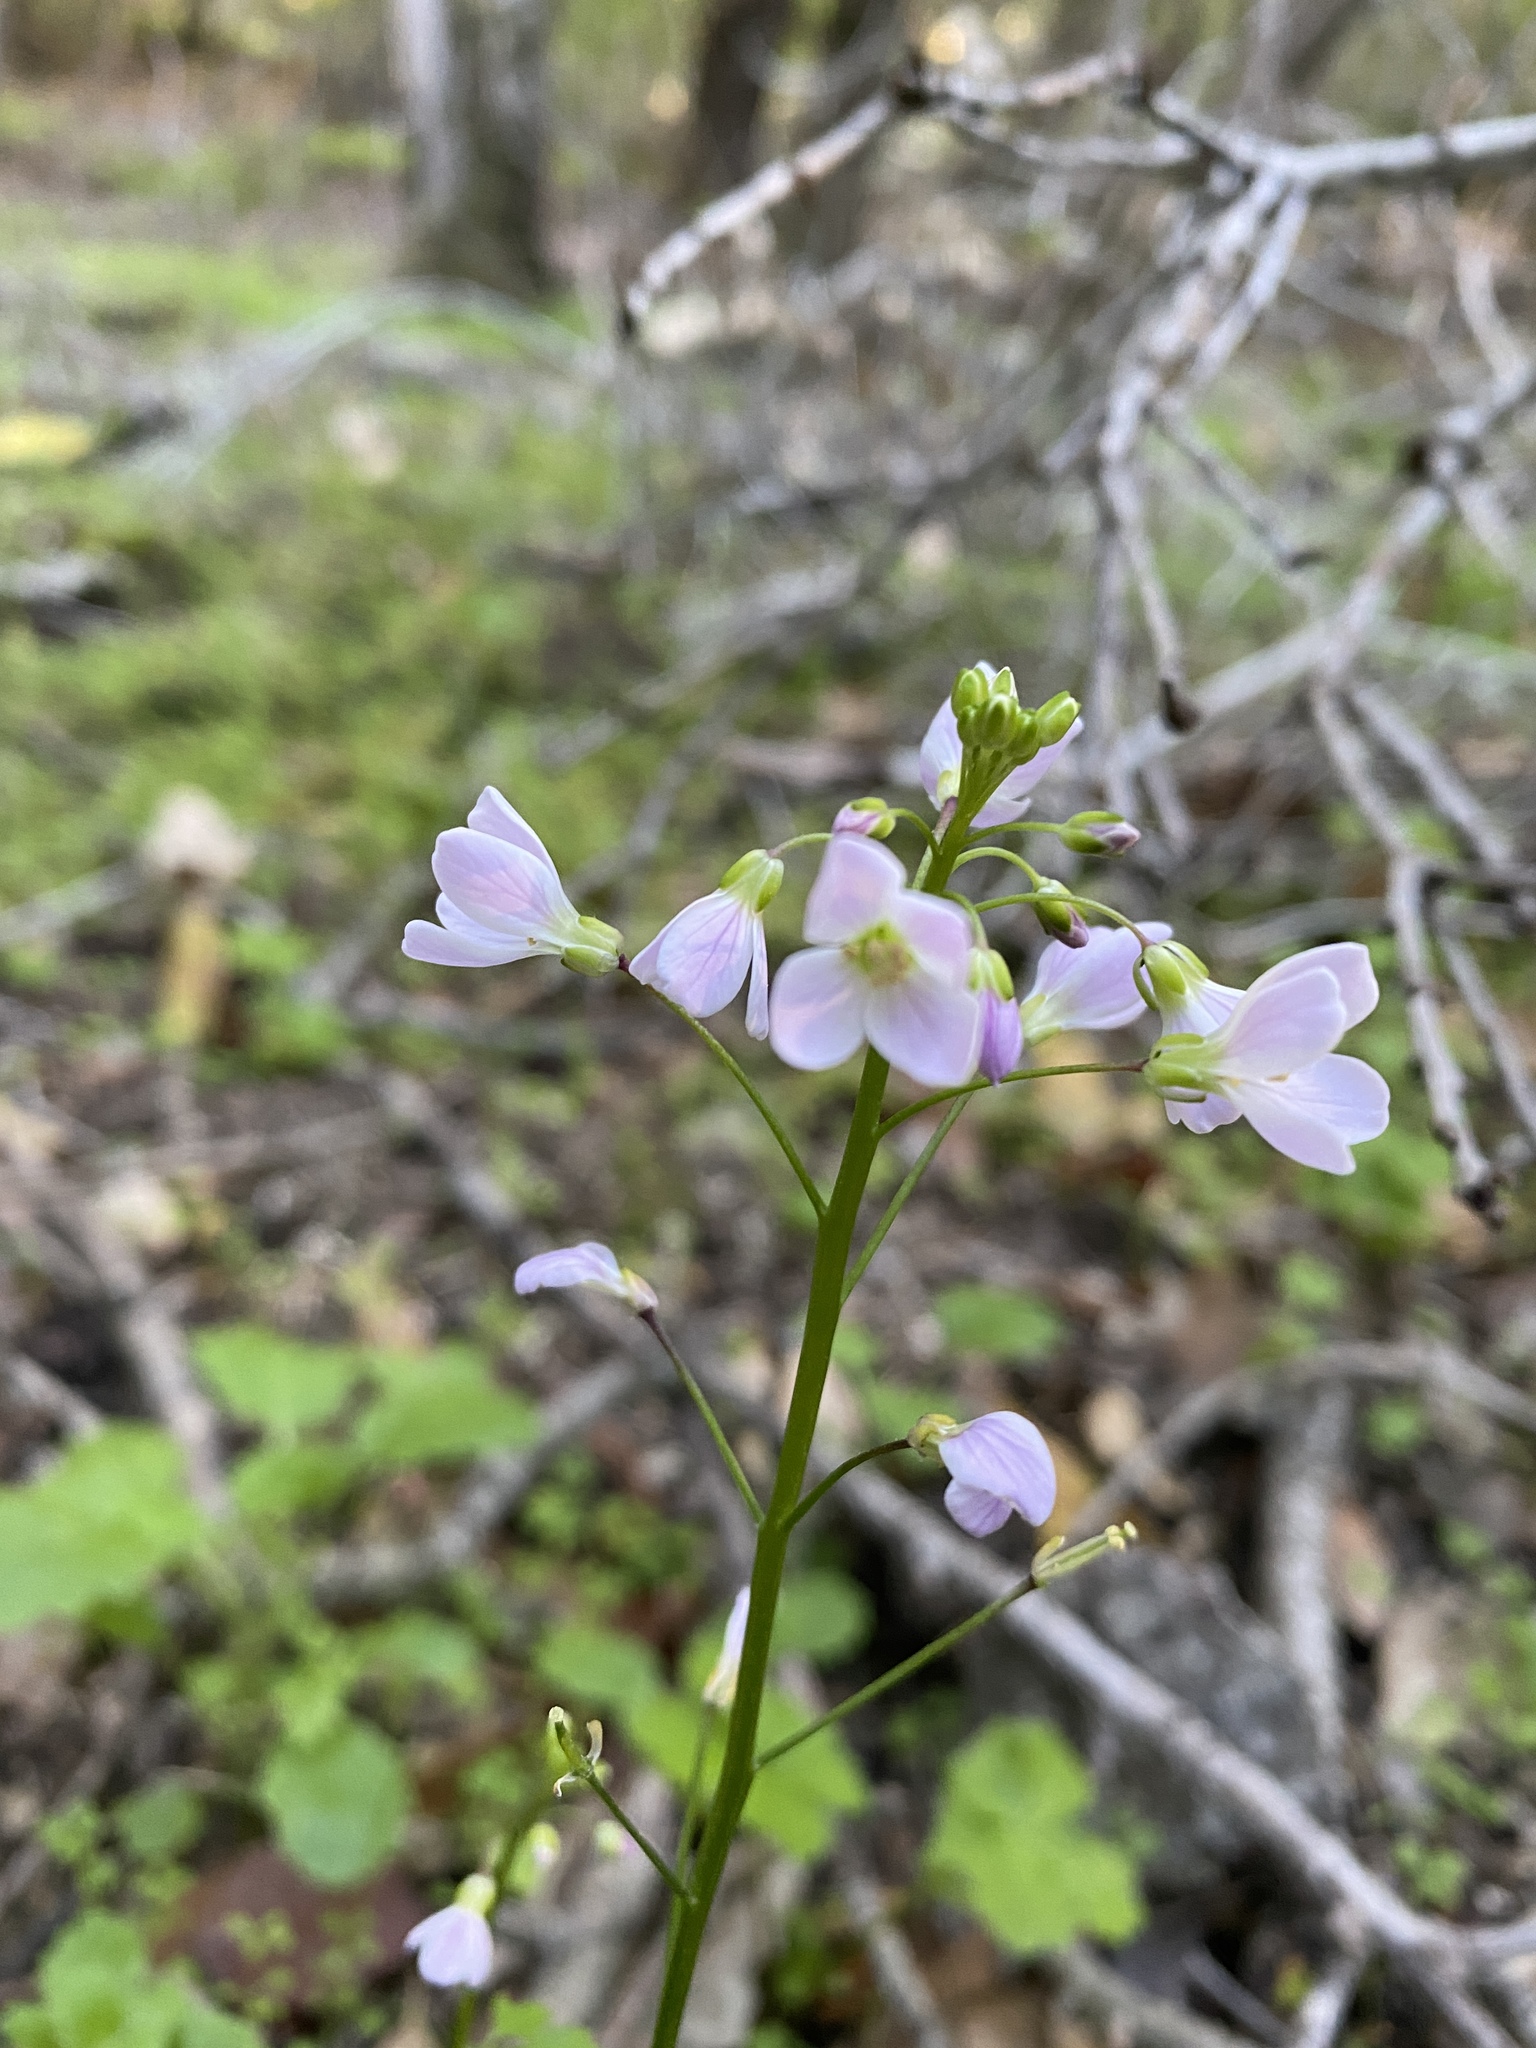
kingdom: Plantae
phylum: Tracheophyta
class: Magnoliopsida
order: Brassicales
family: Brassicaceae
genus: Cardamine
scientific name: Cardamine californica
